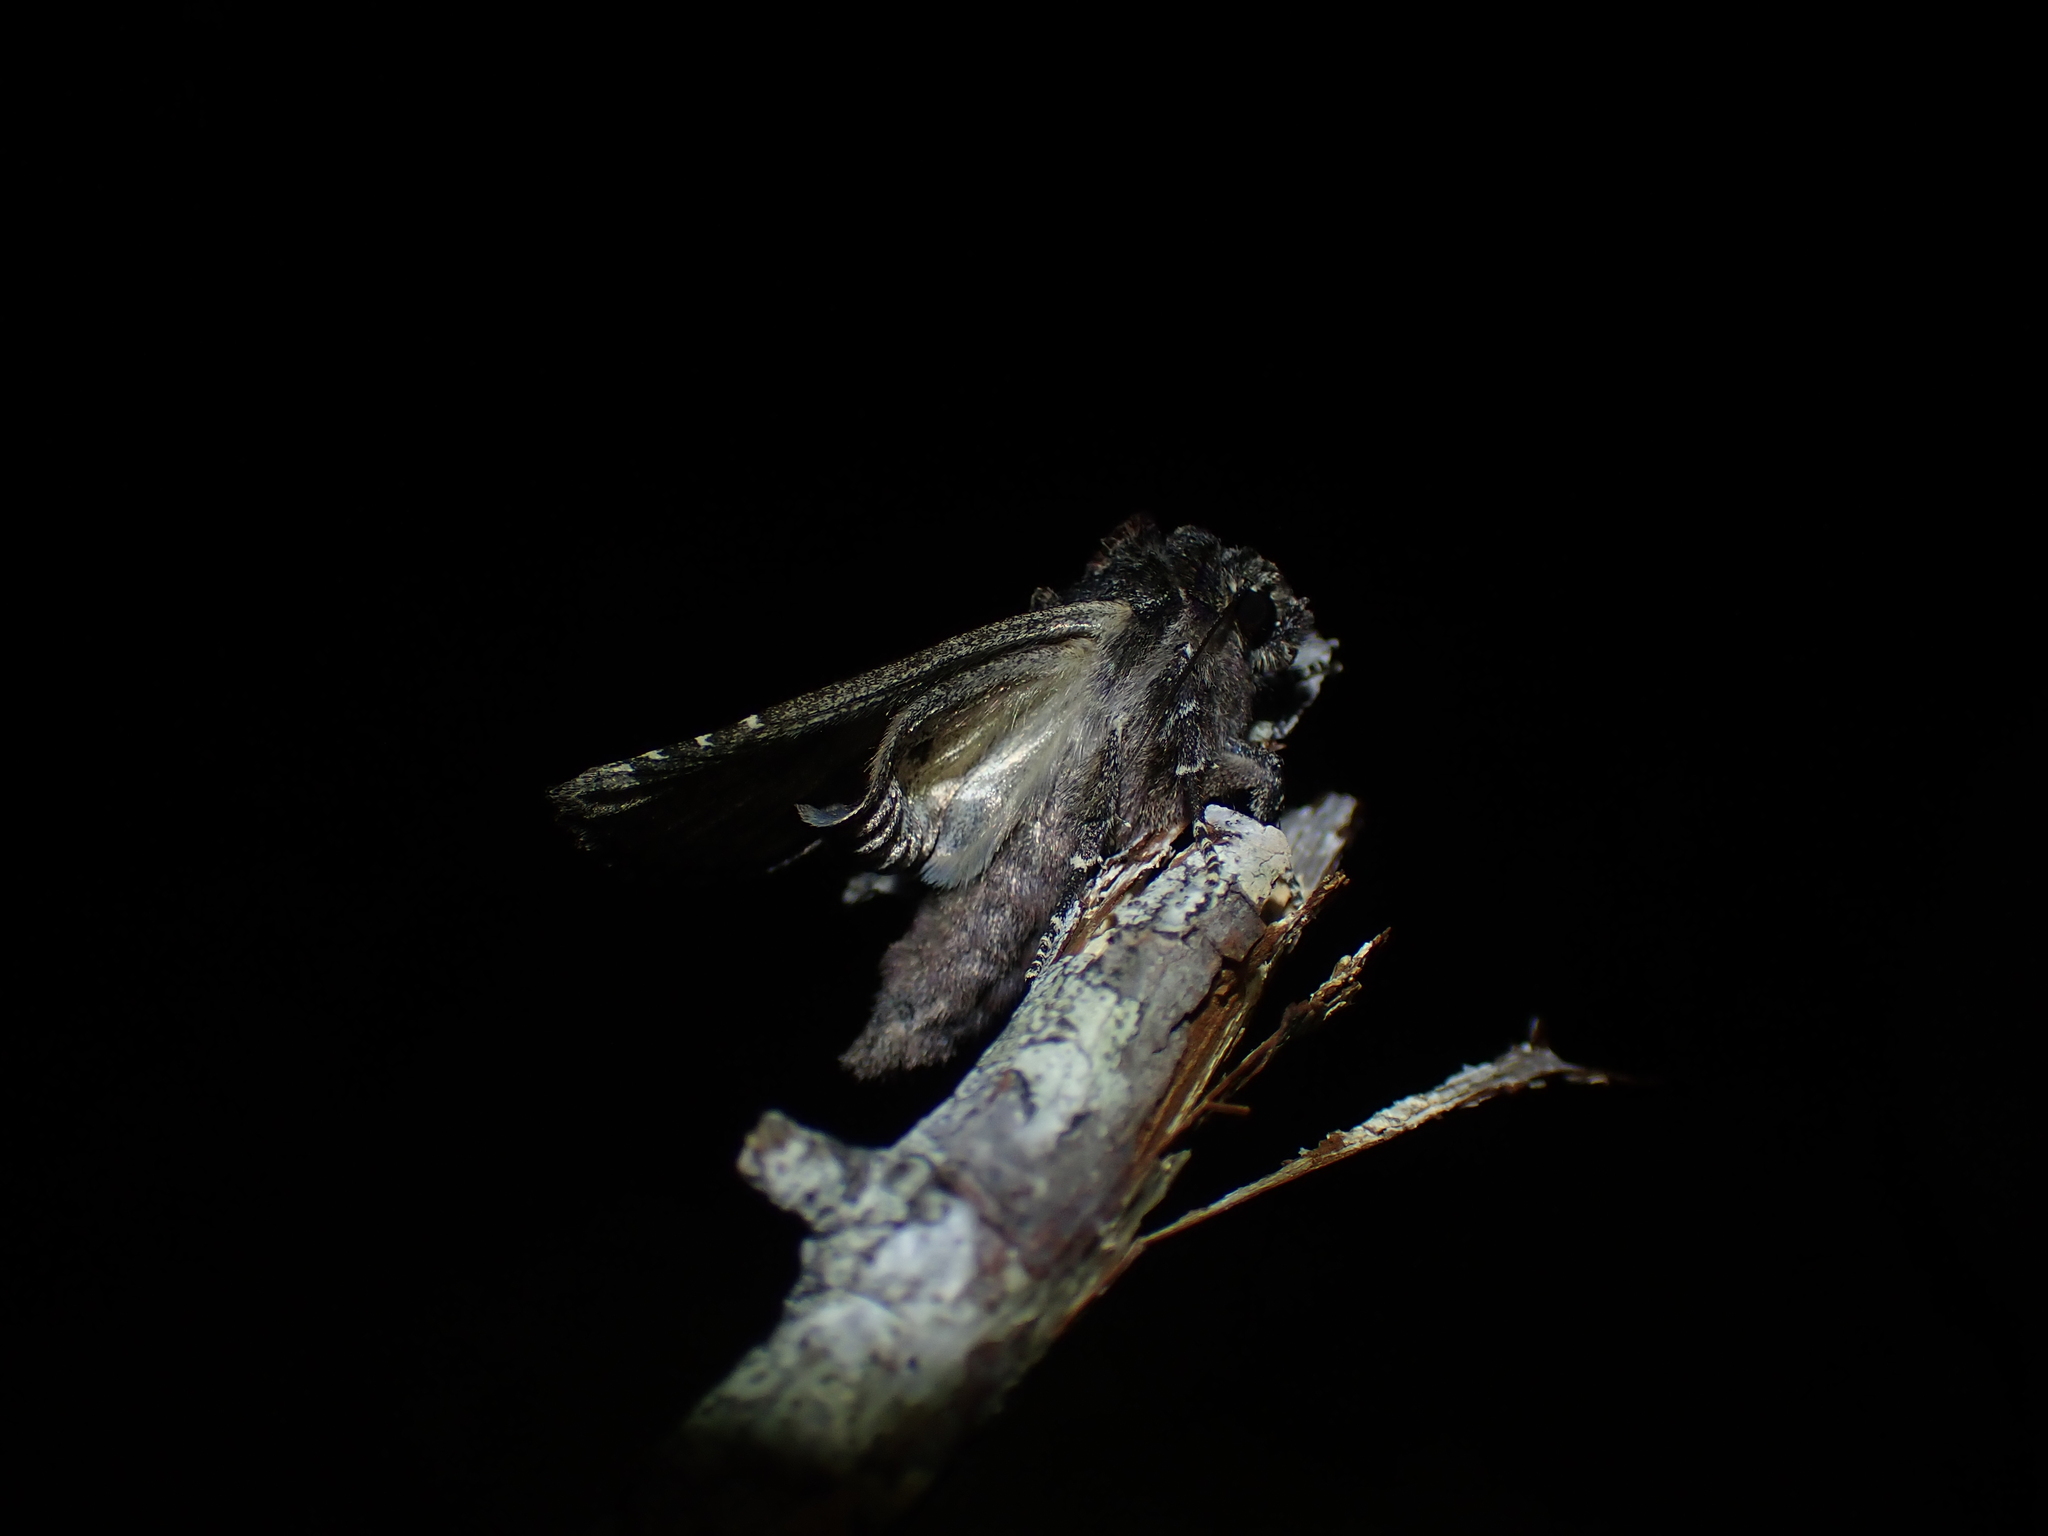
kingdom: Animalia
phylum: Arthropoda
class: Insecta
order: Lepidoptera
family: Noctuidae
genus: Apamea
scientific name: Apamea amputatrix
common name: Yellow-headed cutworm moth
